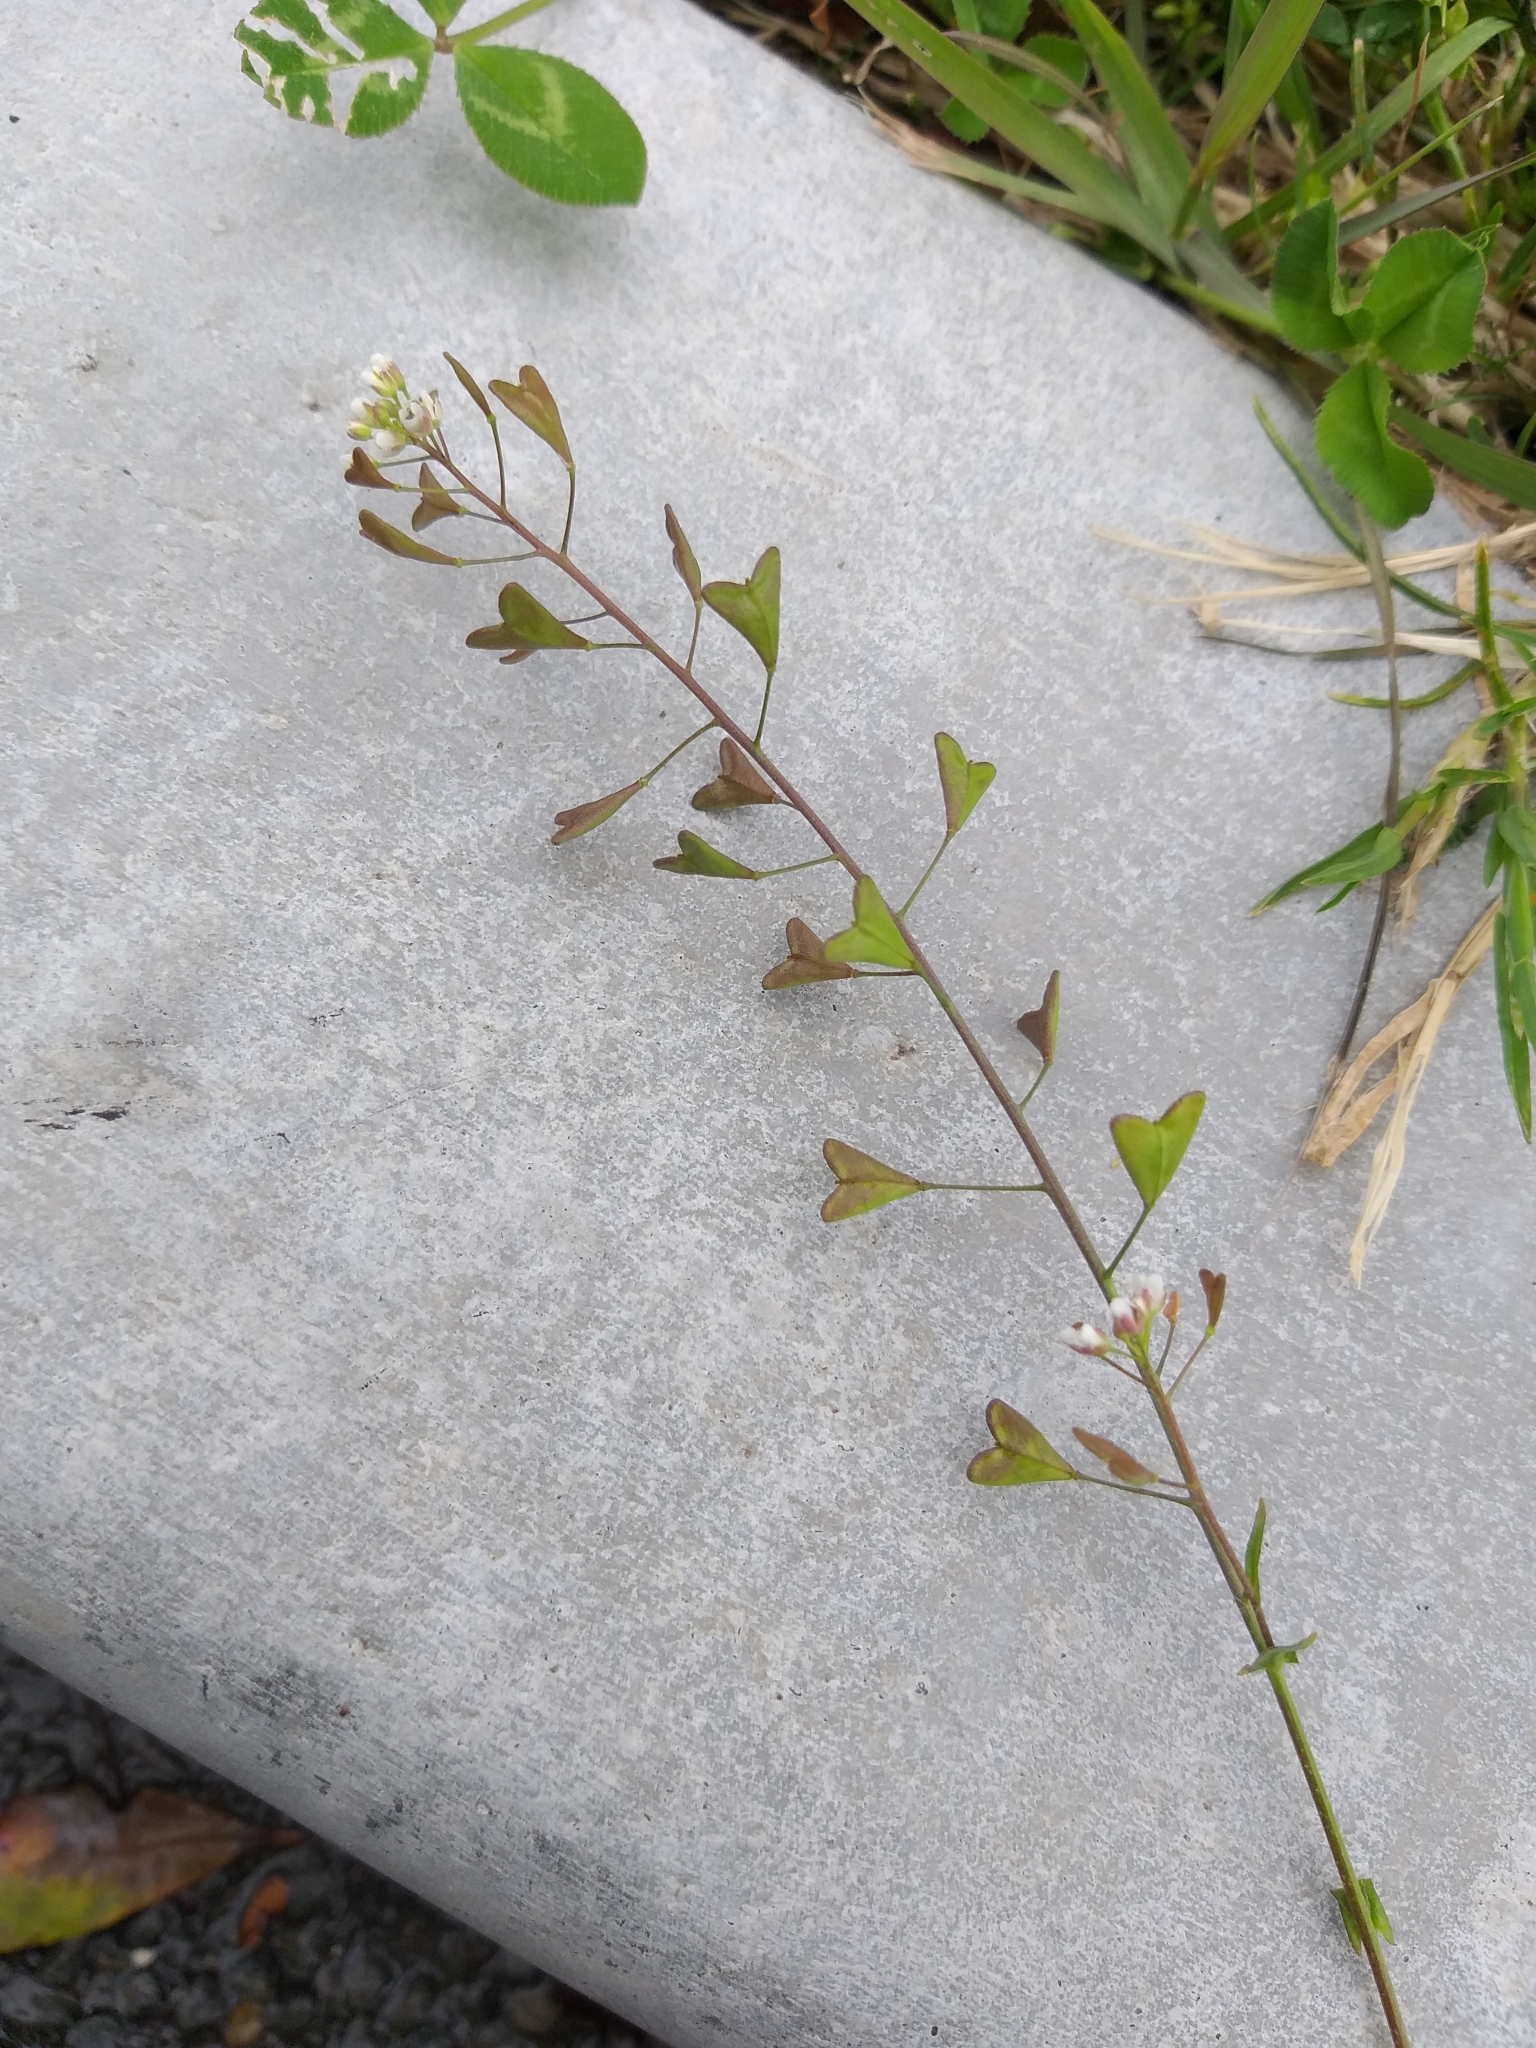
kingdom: Plantae
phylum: Tracheophyta
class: Magnoliopsida
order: Brassicales
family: Brassicaceae
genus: Capsella
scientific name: Capsella bursa-pastoris
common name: Shepherd's purse
